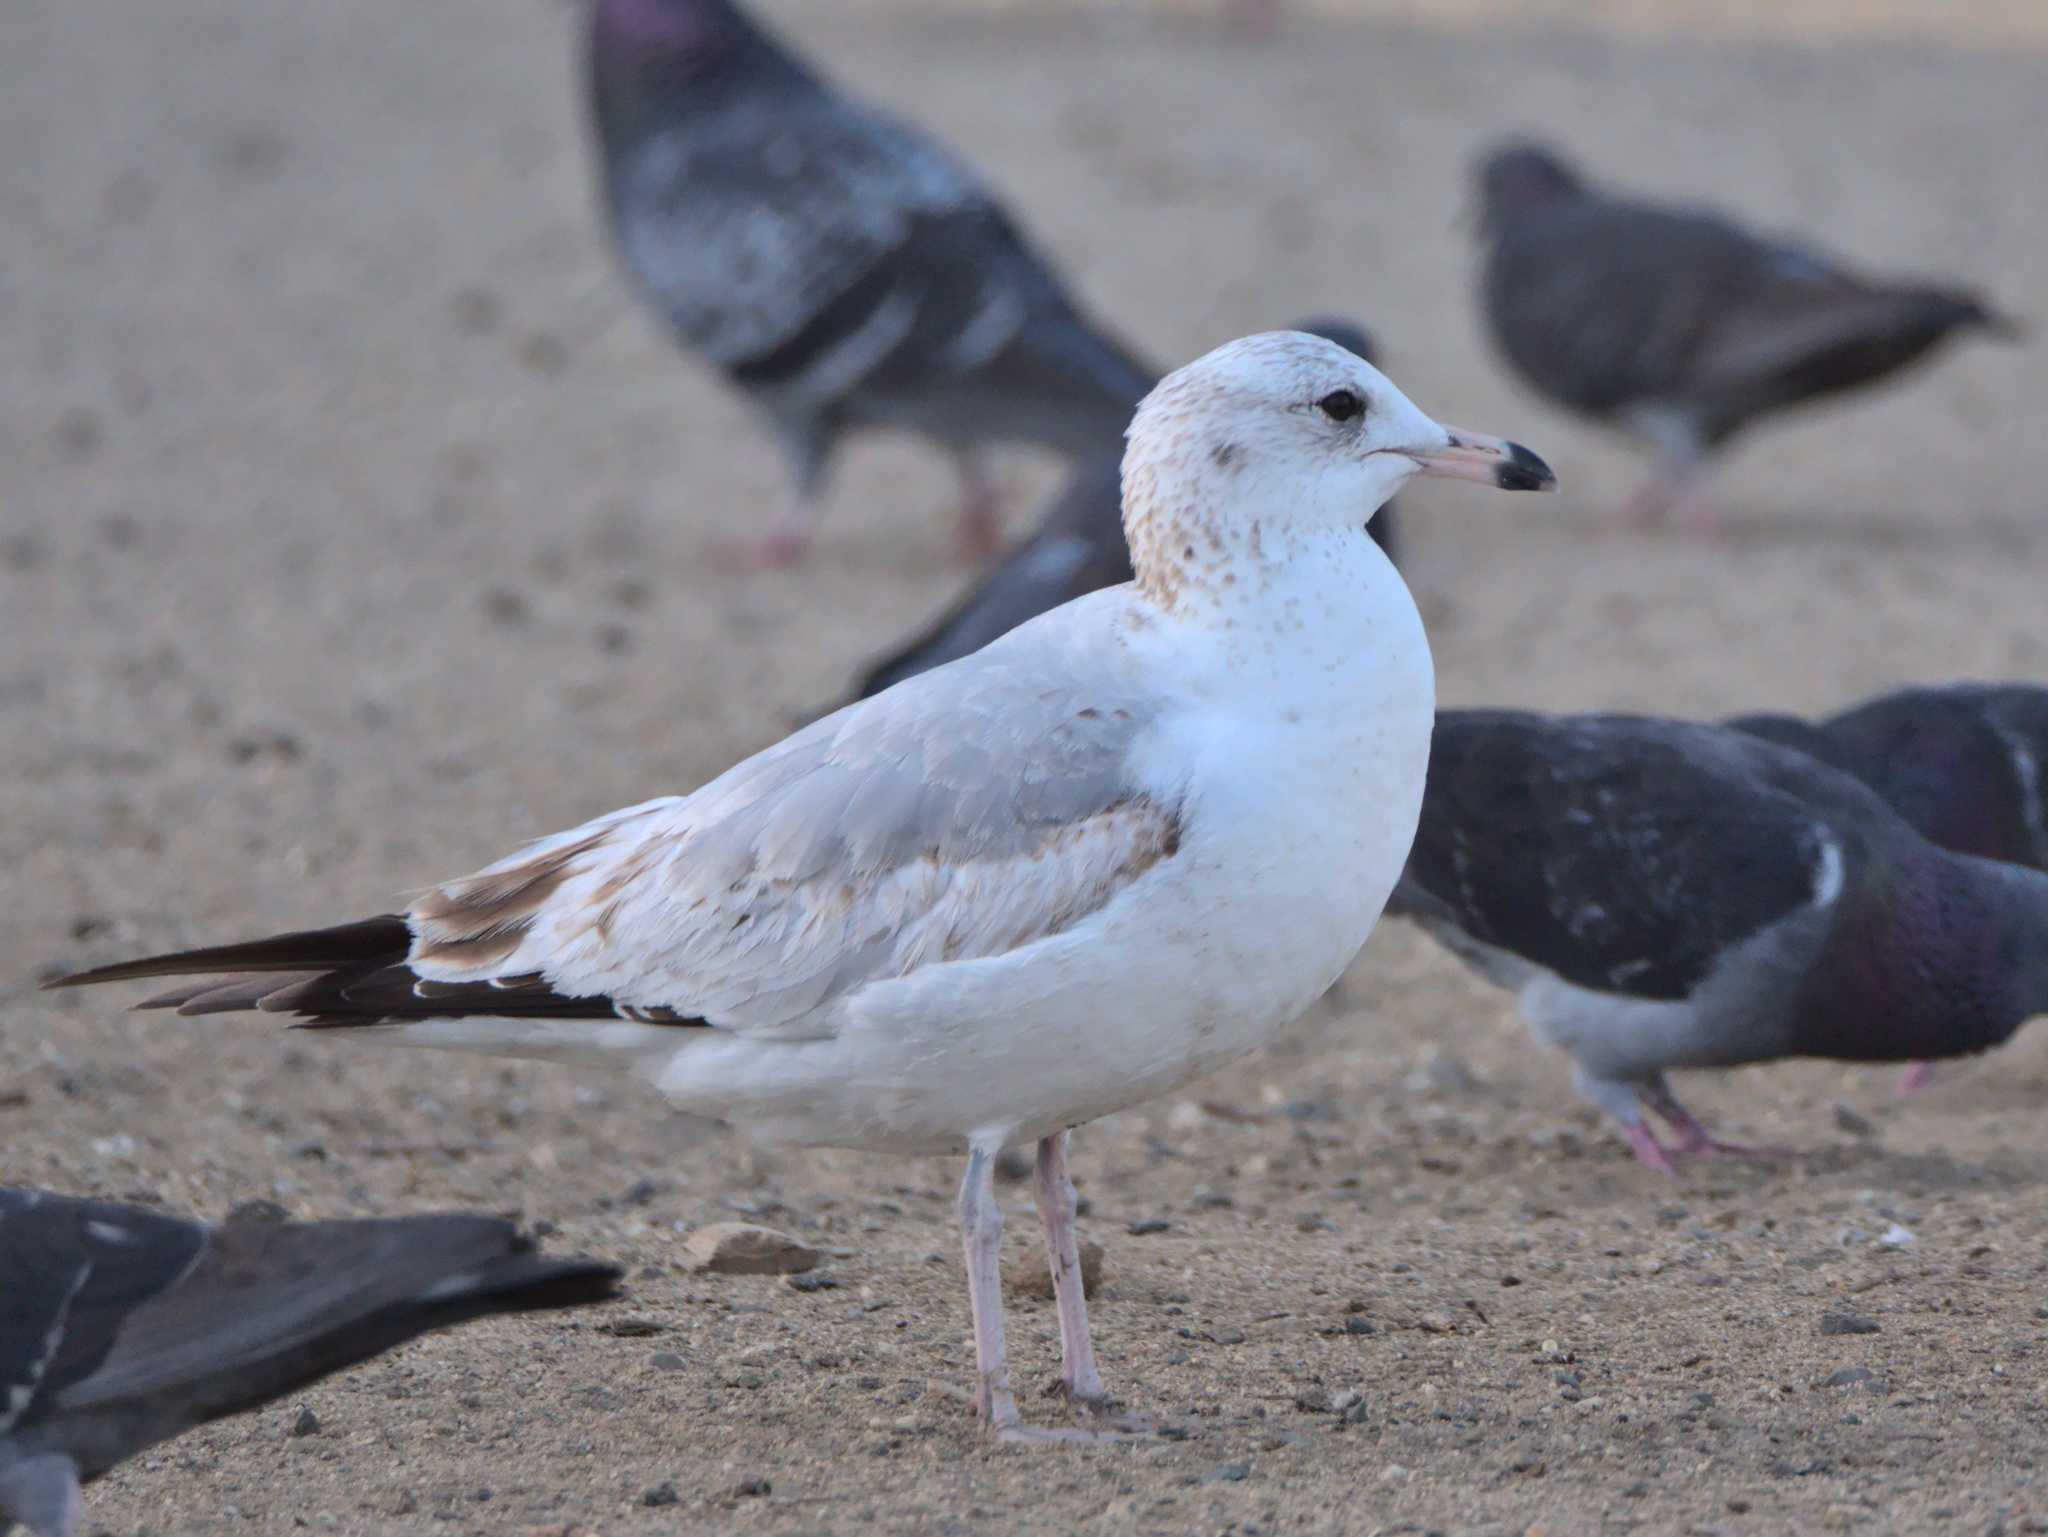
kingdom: Animalia
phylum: Chordata
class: Aves
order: Charadriiformes
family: Laridae
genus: Larus
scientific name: Larus delawarensis
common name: Ring-billed gull
